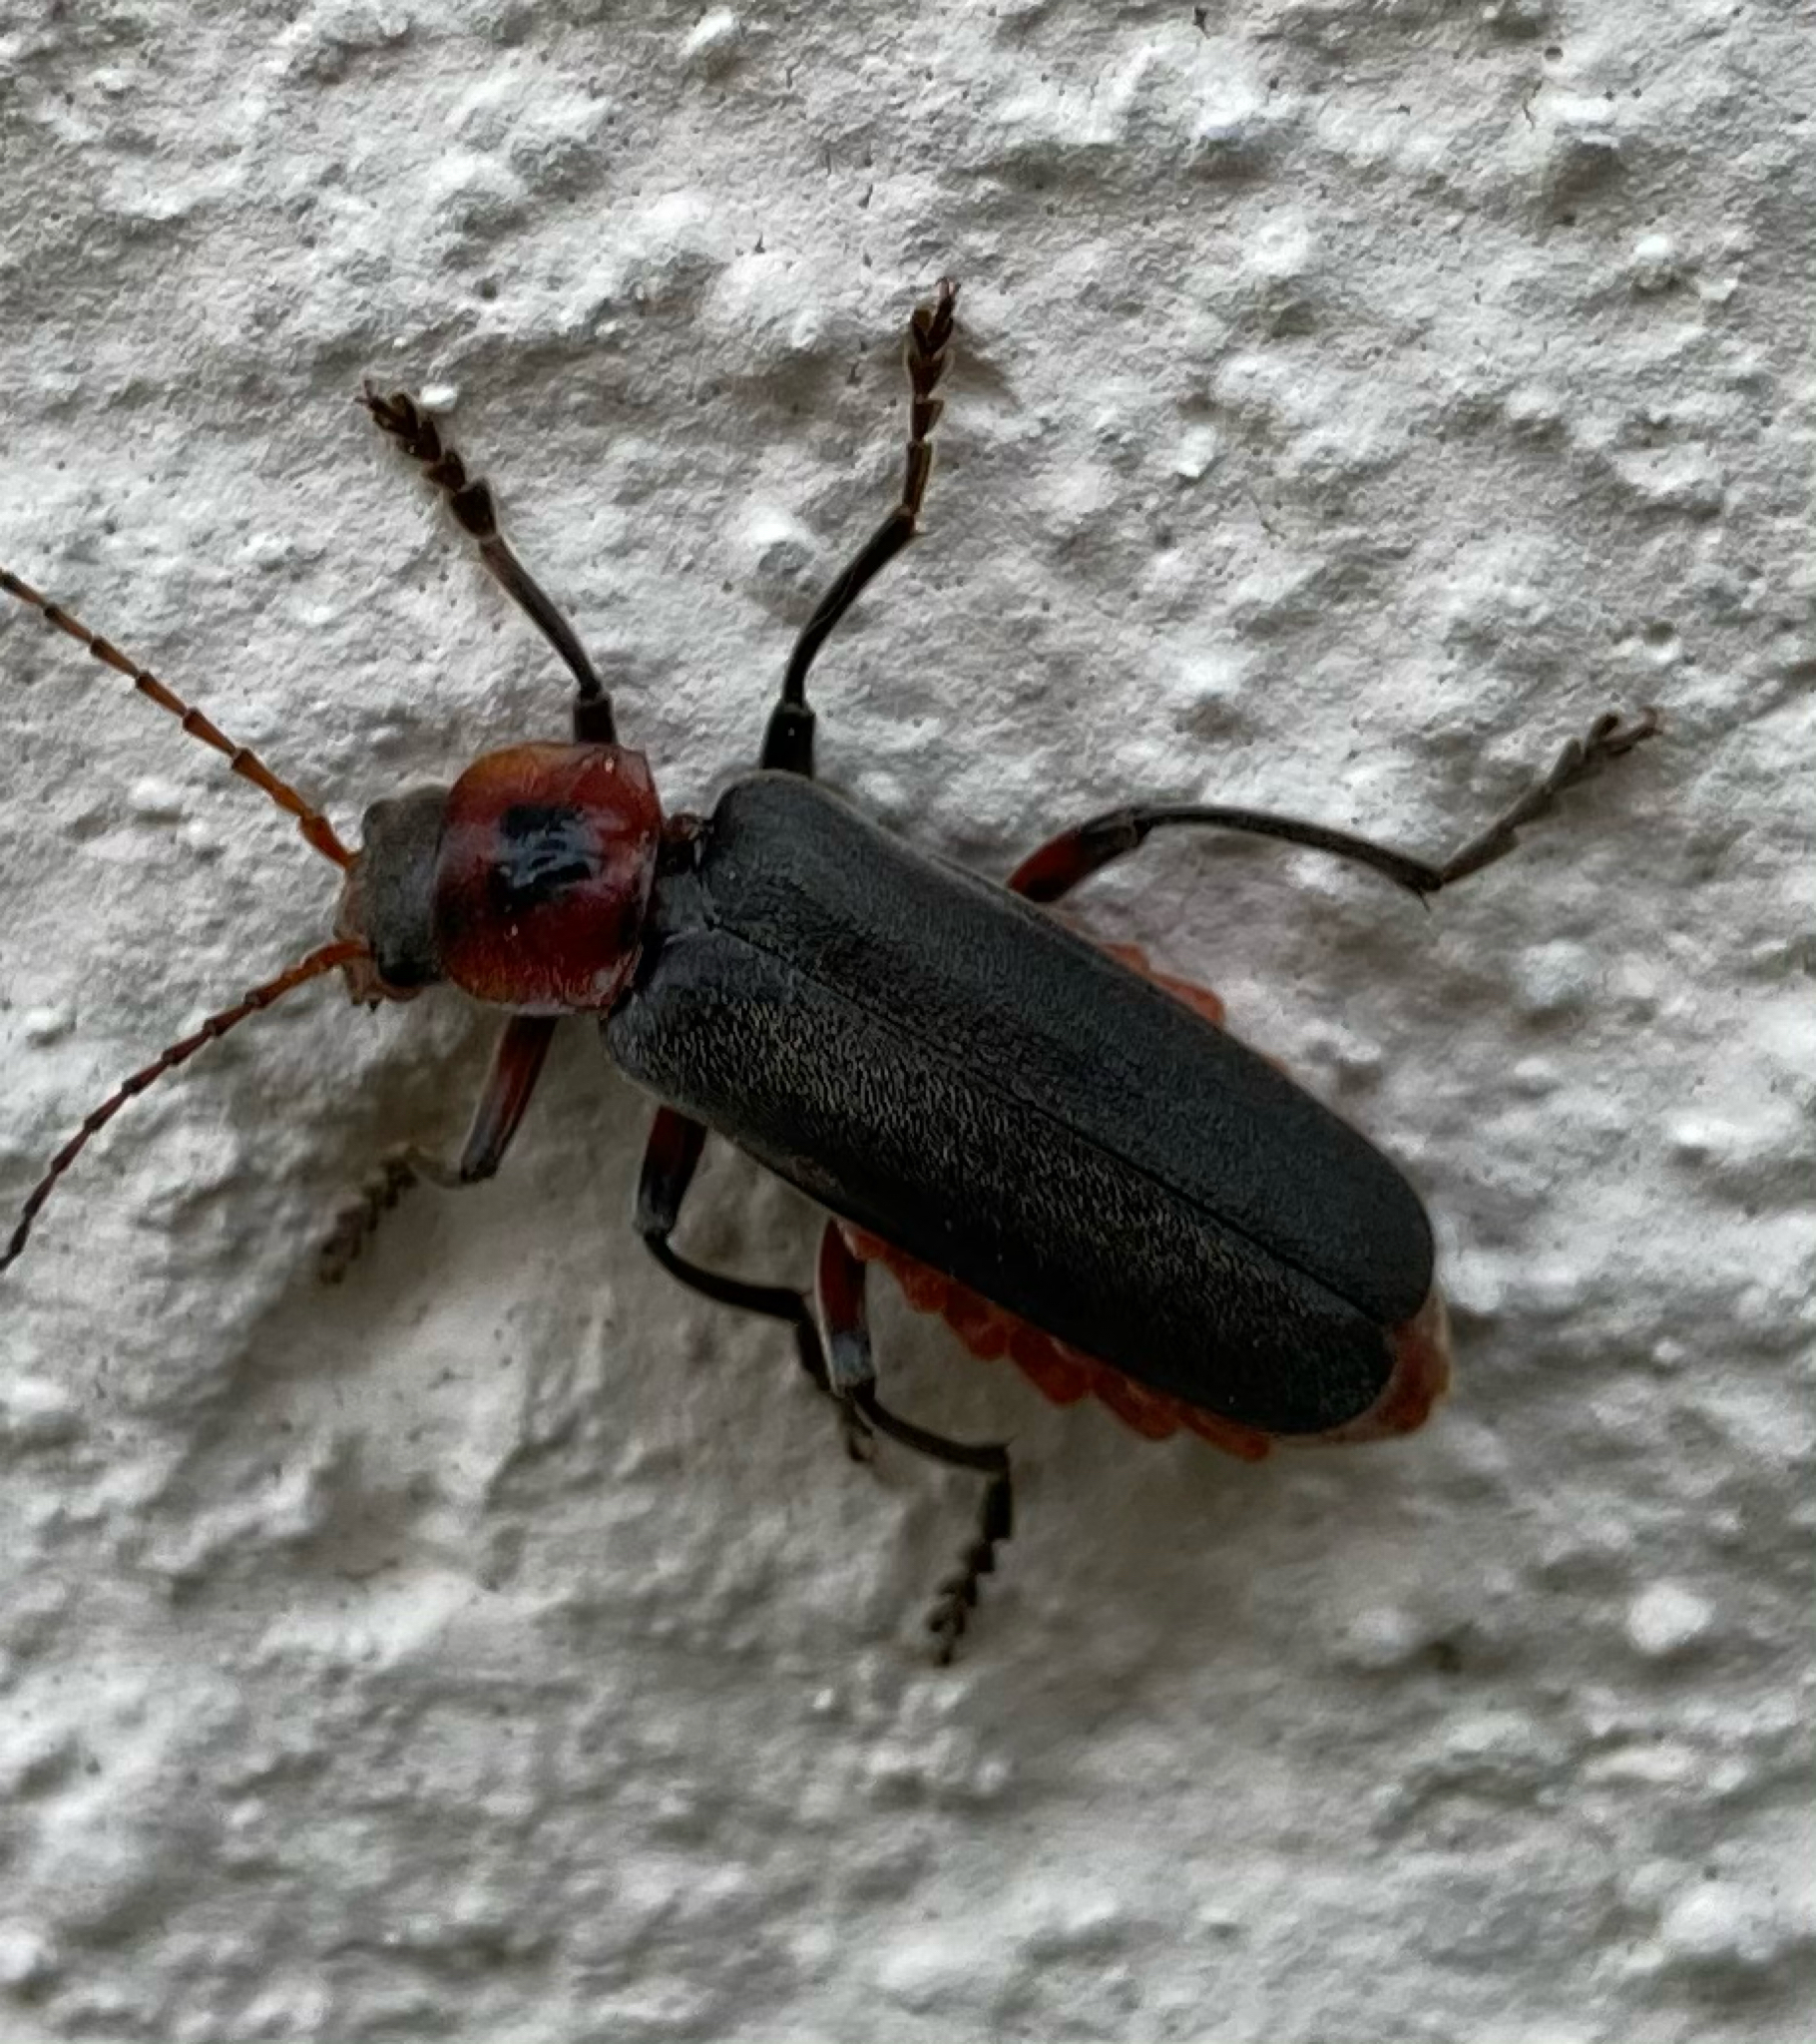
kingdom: Animalia
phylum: Arthropoda
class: Insecta
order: Coleoptera
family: Cantharidae
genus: Cantharis
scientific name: Cantharis rustica
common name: Soldier beetle
